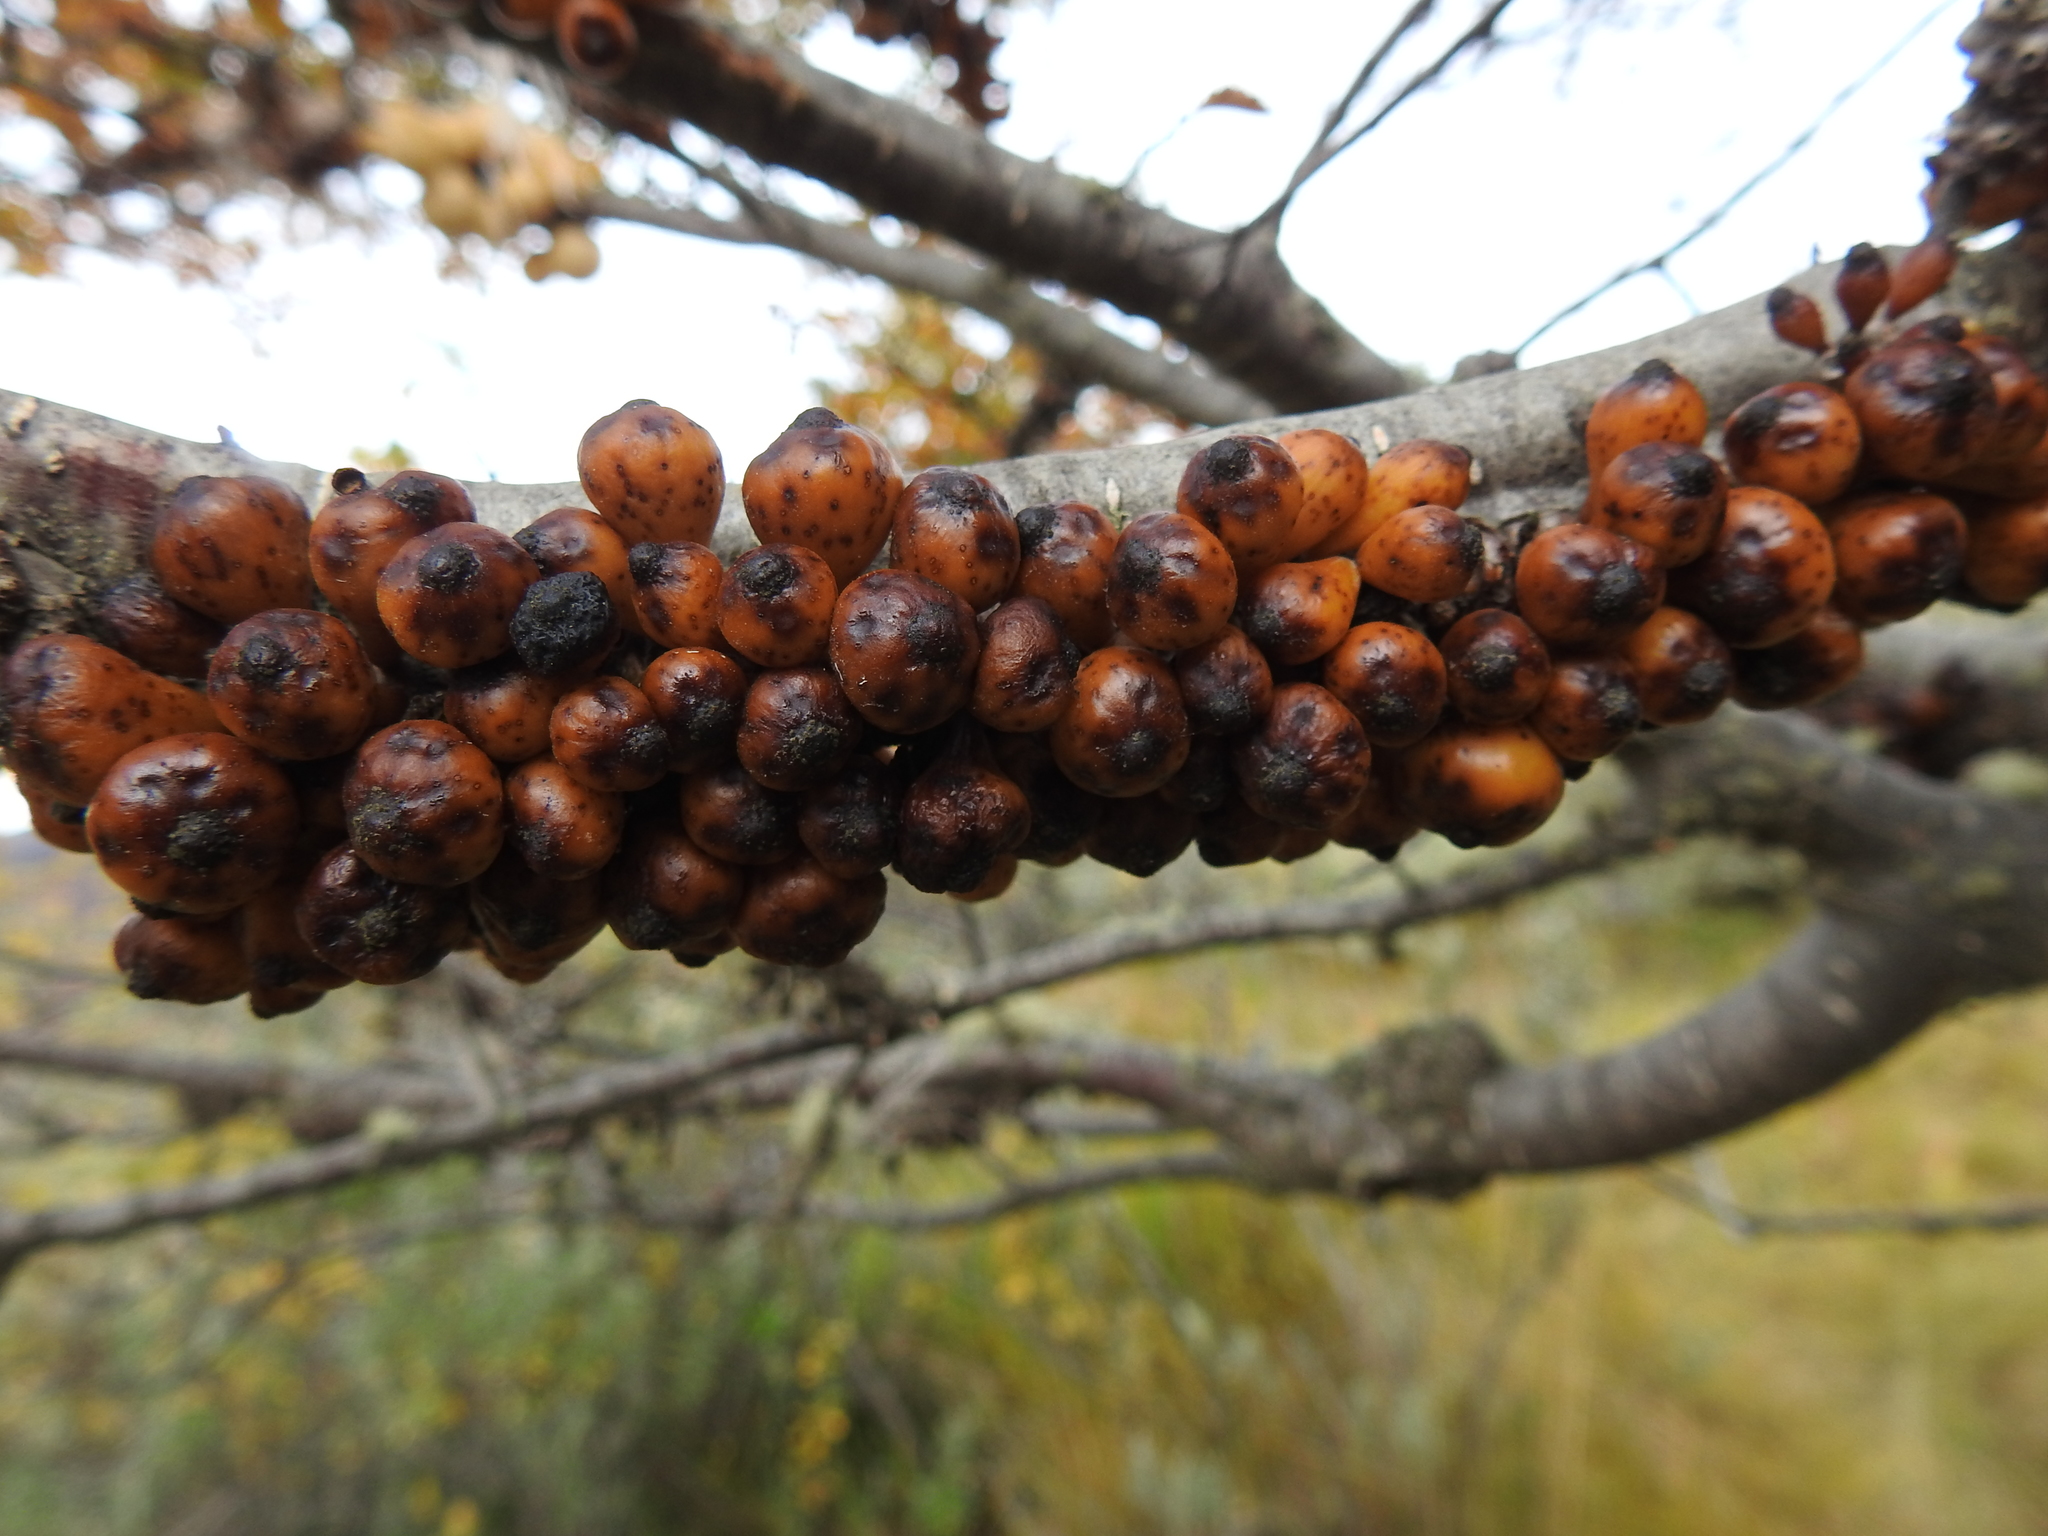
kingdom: Fungi
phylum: Ascomycota
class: Leotiomycetes
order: Cyttariales
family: Cyttariaceae
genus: Cyttaria
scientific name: Cyttaria hookeri
